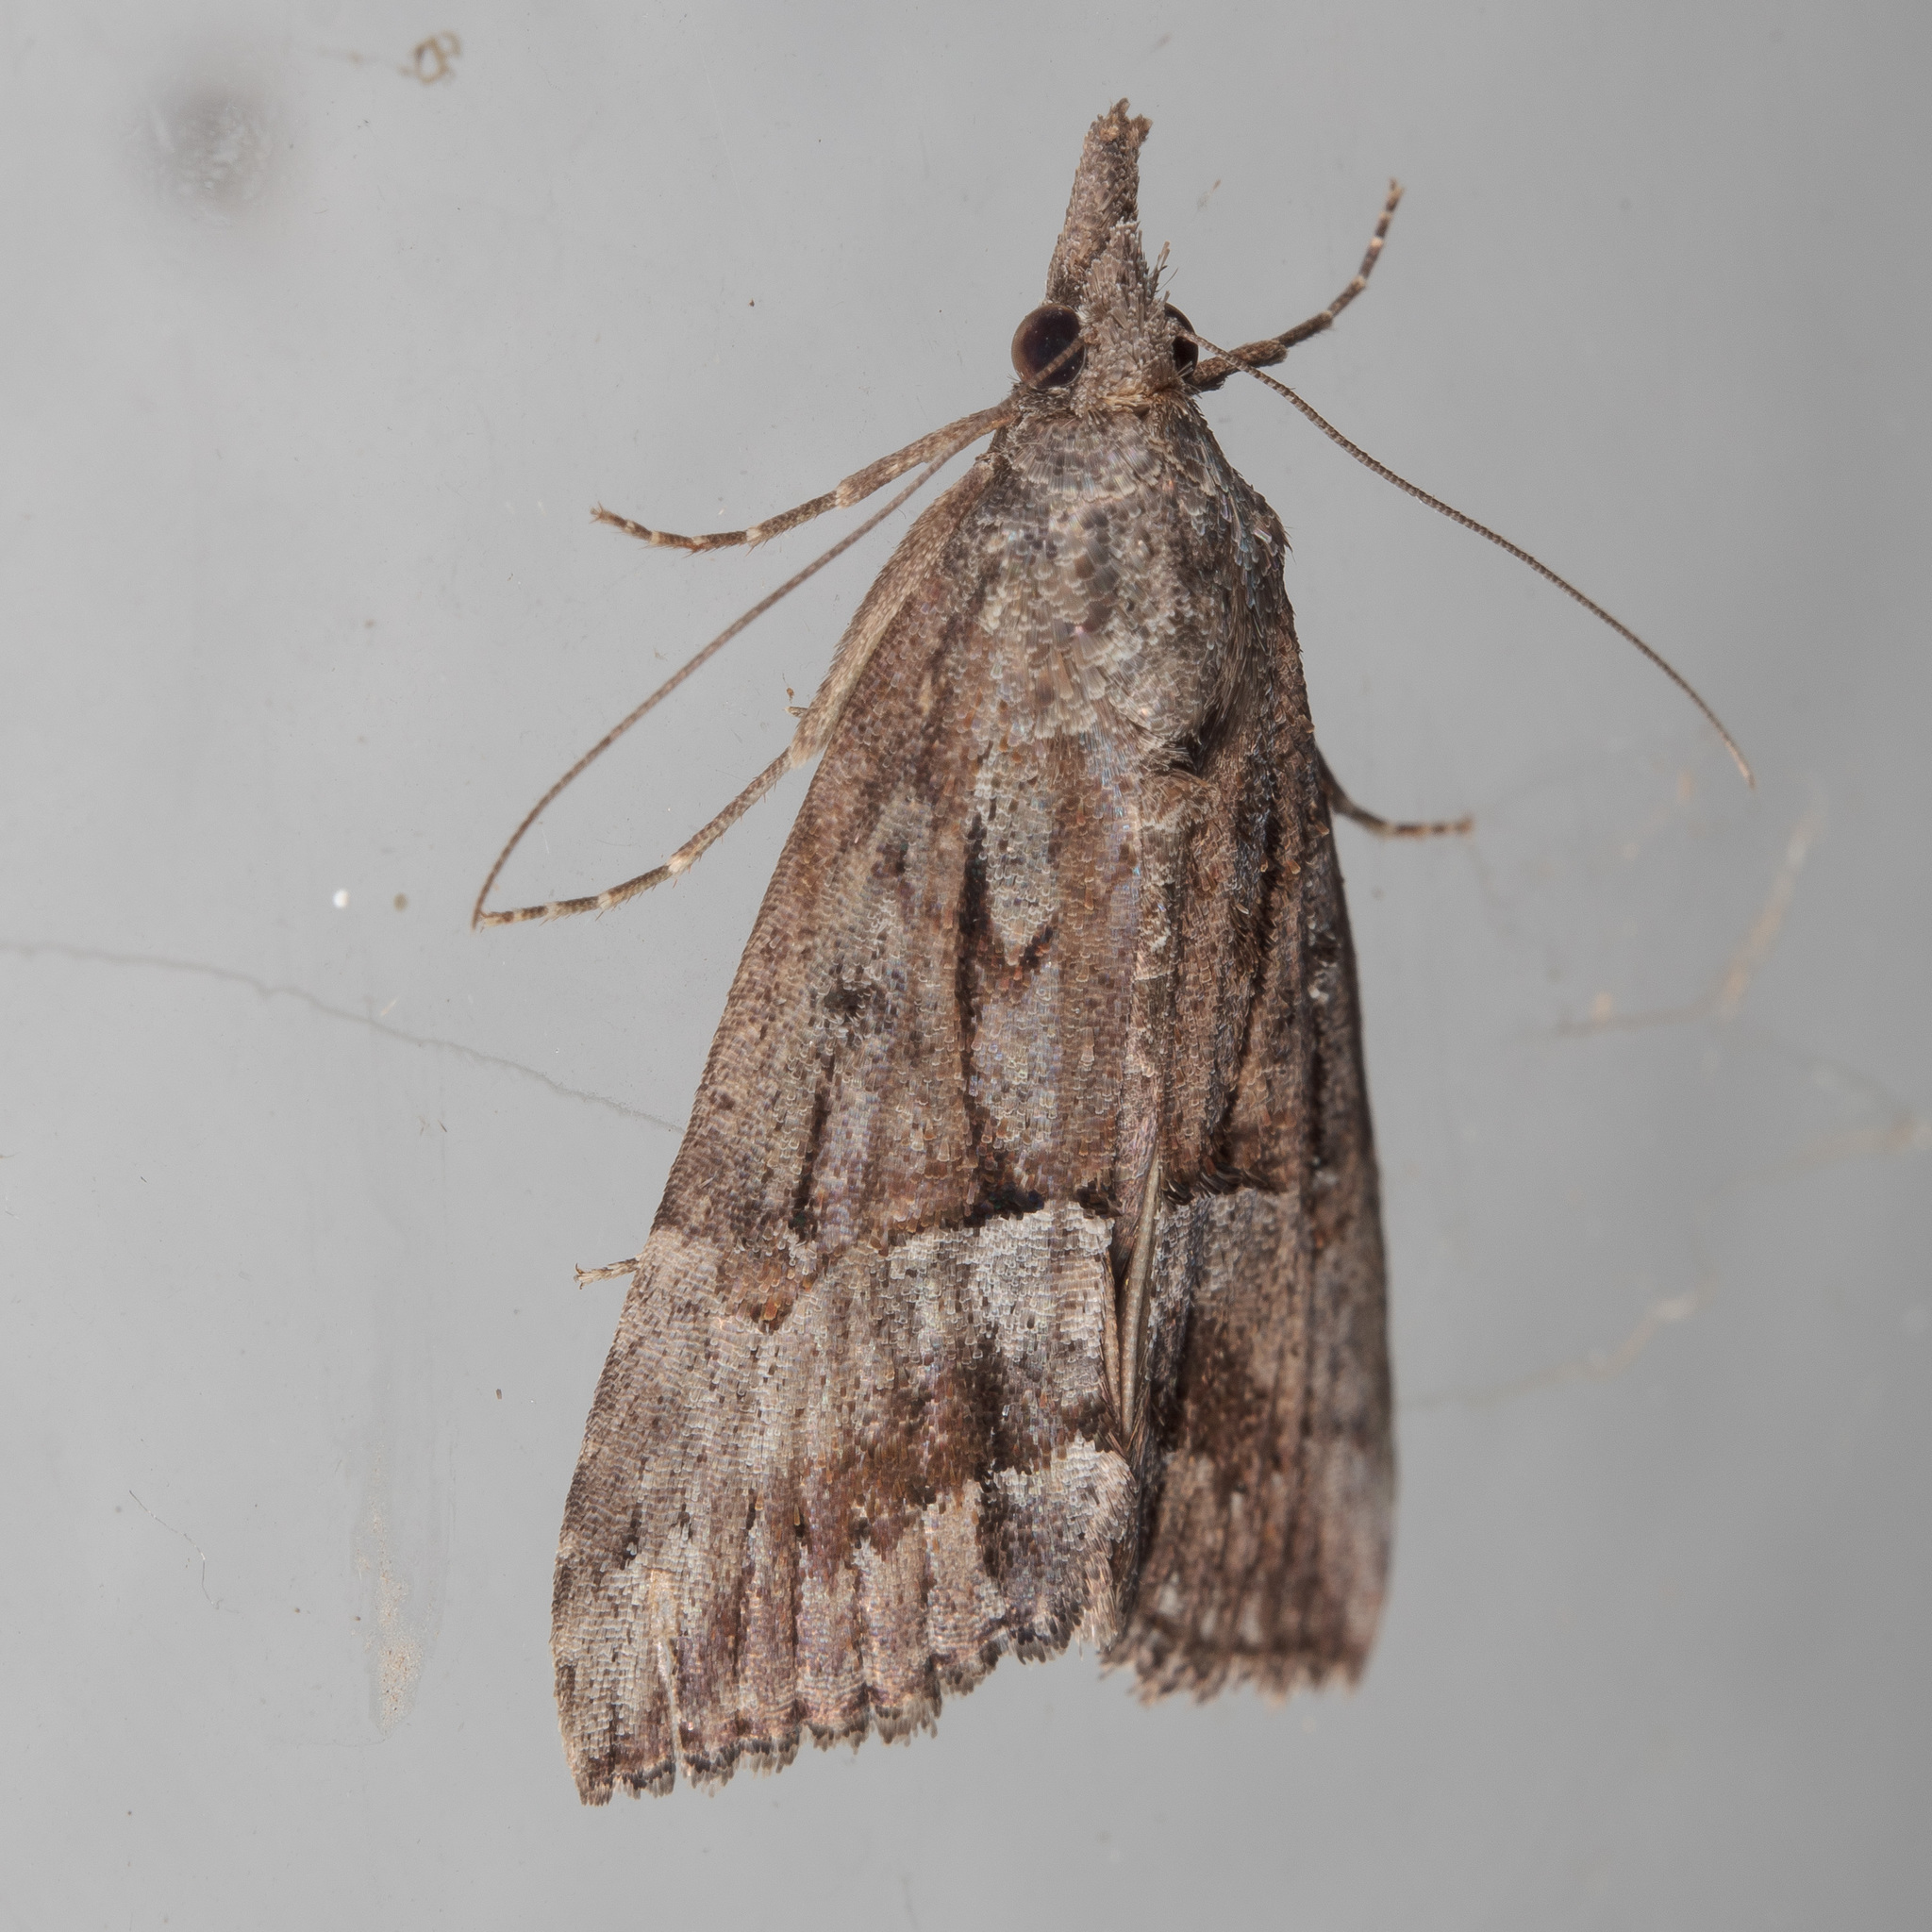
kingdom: Animalia
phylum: Arthropoda
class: Insecta
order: Lepidoptera
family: Erebidae
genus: Hypena
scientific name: Hypena scabra
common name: Green cloverworm
